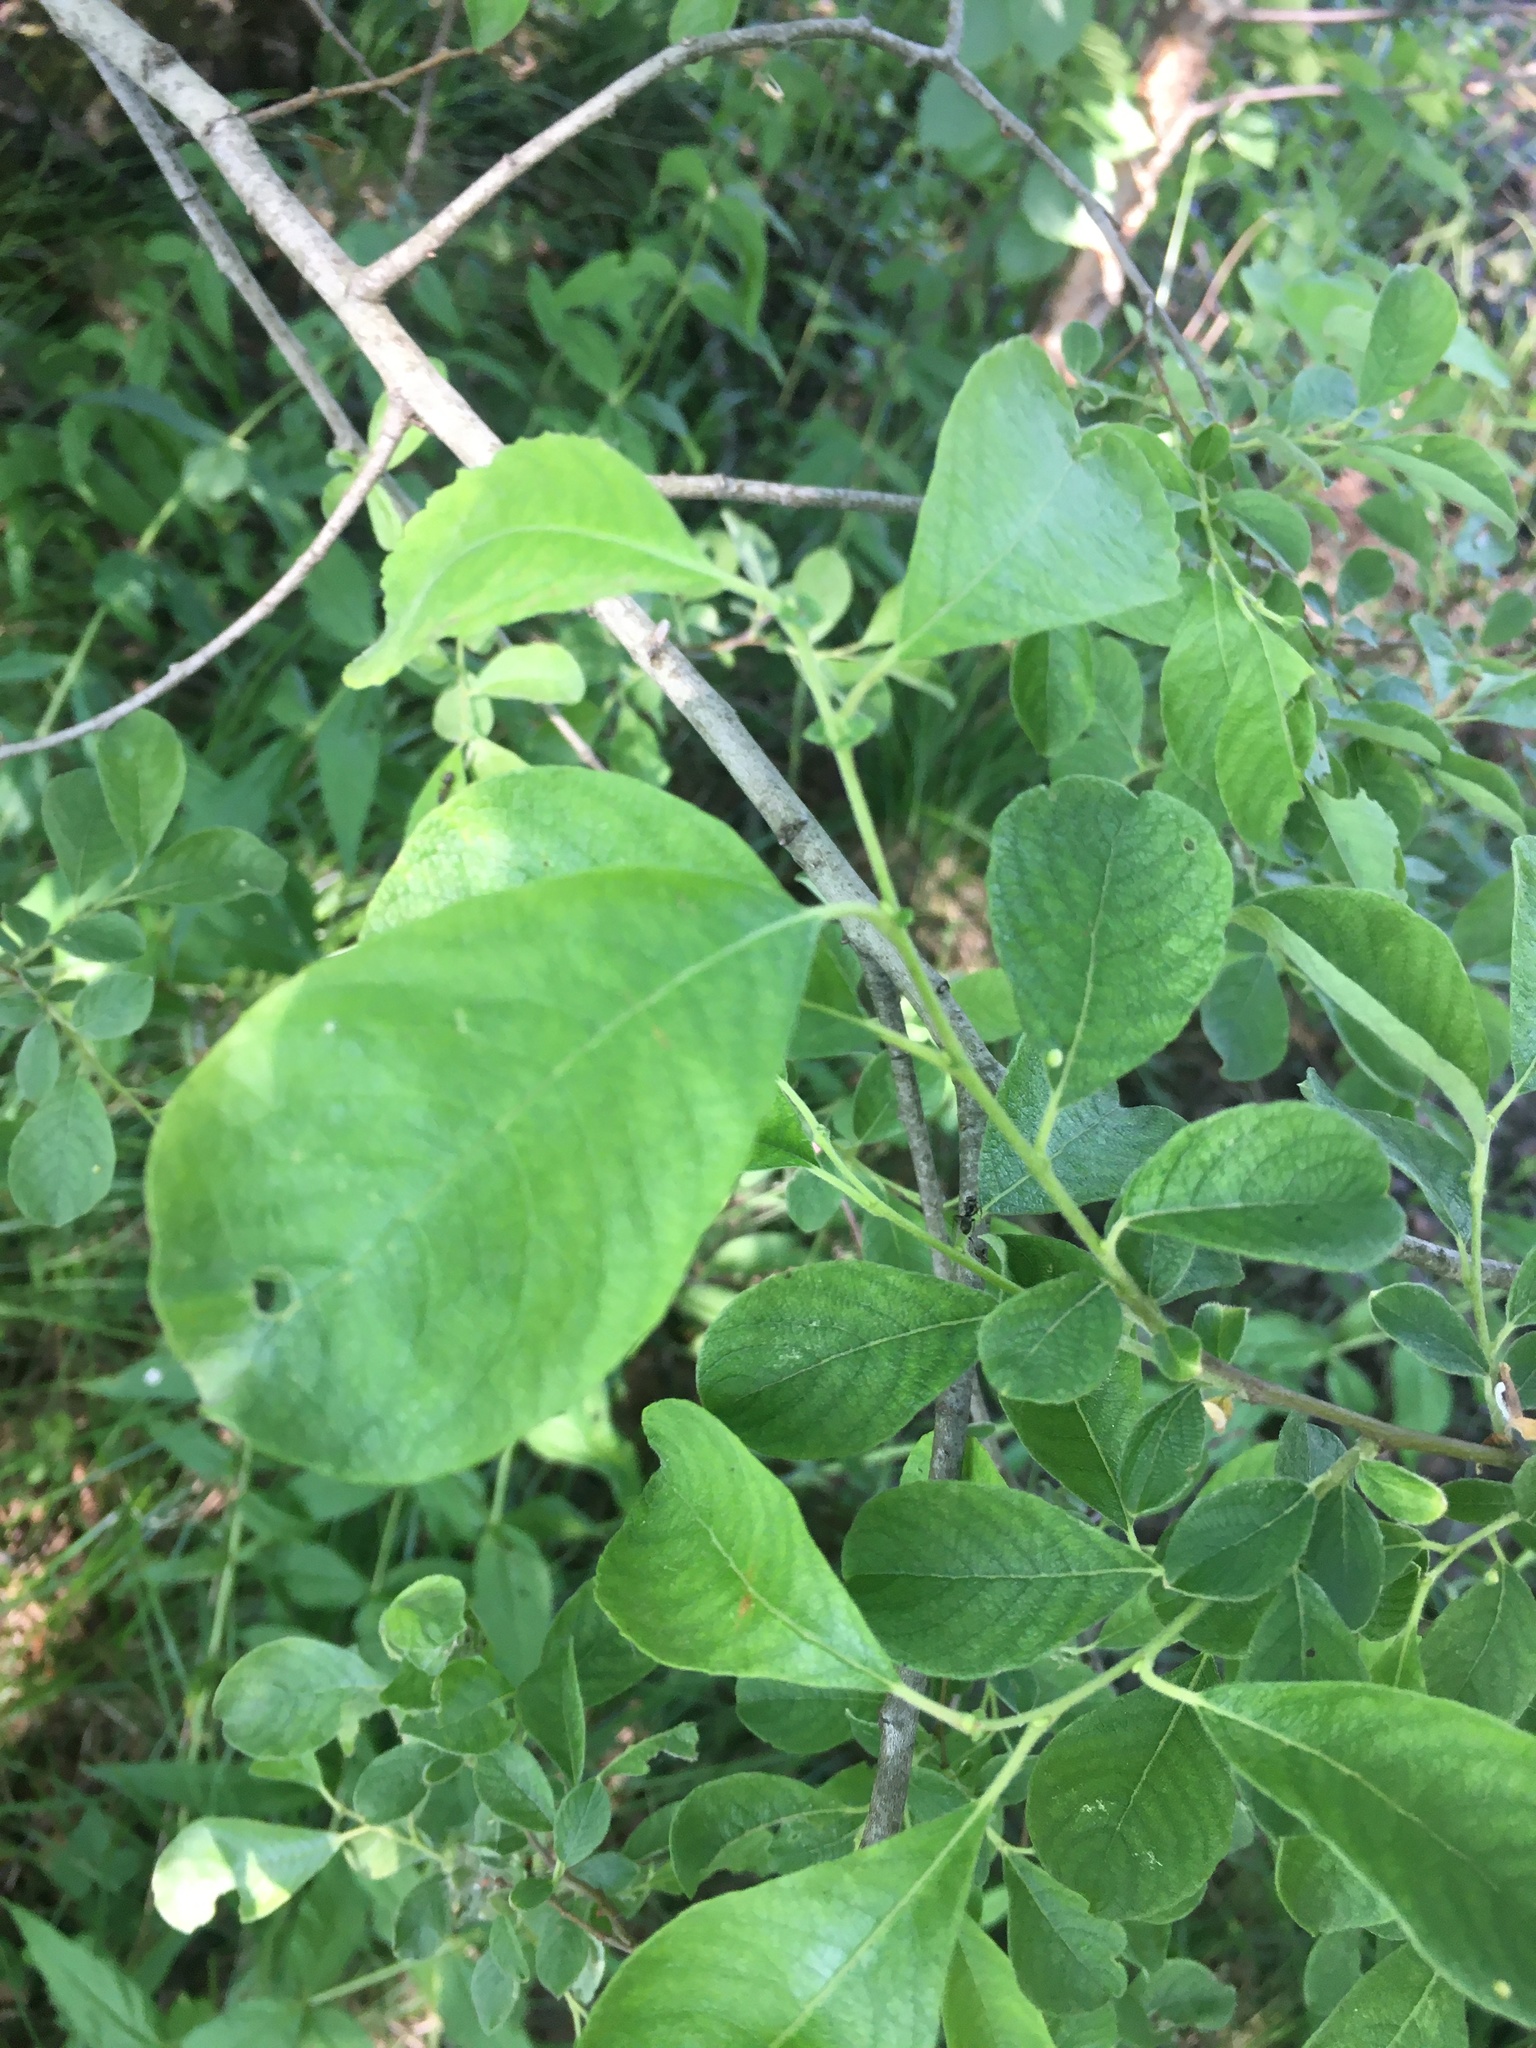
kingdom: Plantae
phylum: Tracheophyta
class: Magnoliopsida
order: Malpighiales
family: Salicaceae
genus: Salix
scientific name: Salix cinerea
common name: Common sallow
